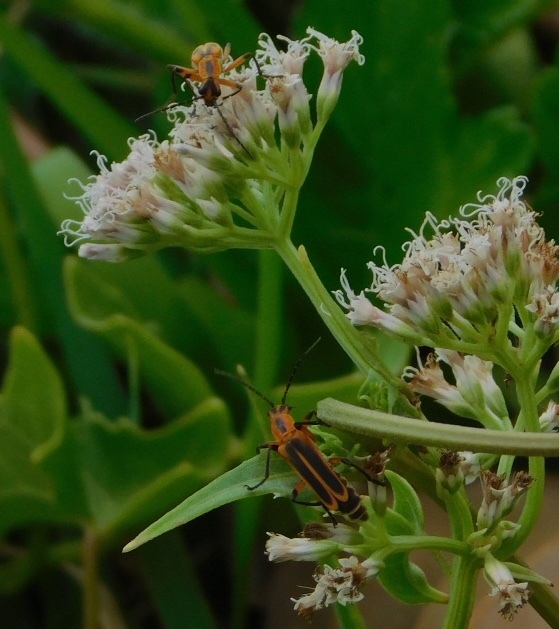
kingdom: Animalia
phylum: Arthropoda
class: Insecta
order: Coleoptera
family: Cantharidae
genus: Chauliognathus
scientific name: Chauliognathus marginatus
